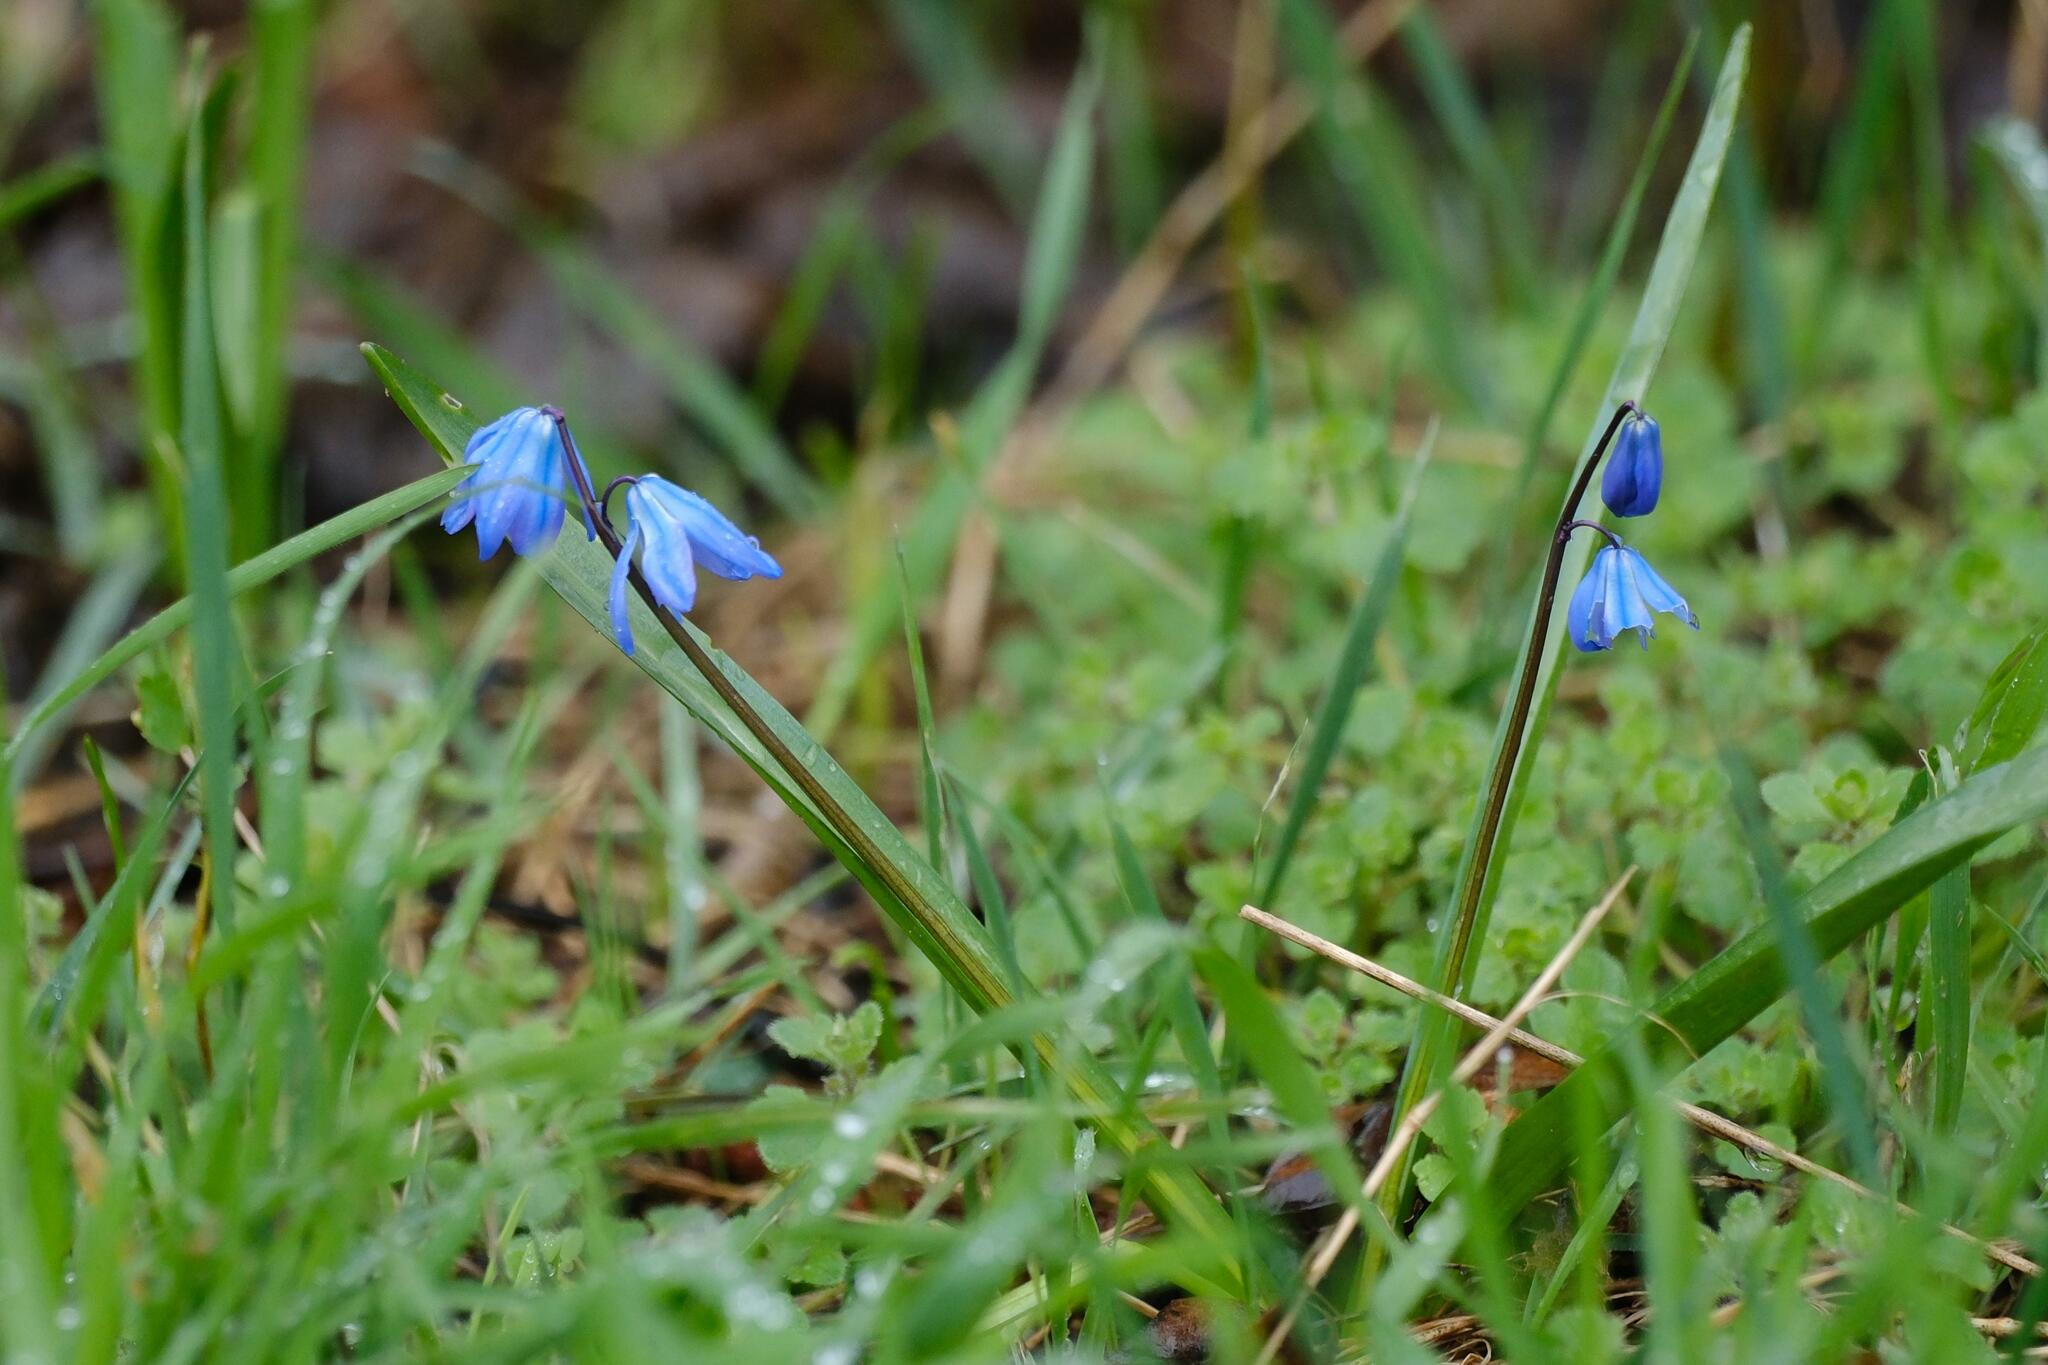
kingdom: Plantae
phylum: Tracheophyta
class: Liliopsida
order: Asparagales
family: Asparagaceae
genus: Scilla
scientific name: Scilla siberica
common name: Siberian squill
